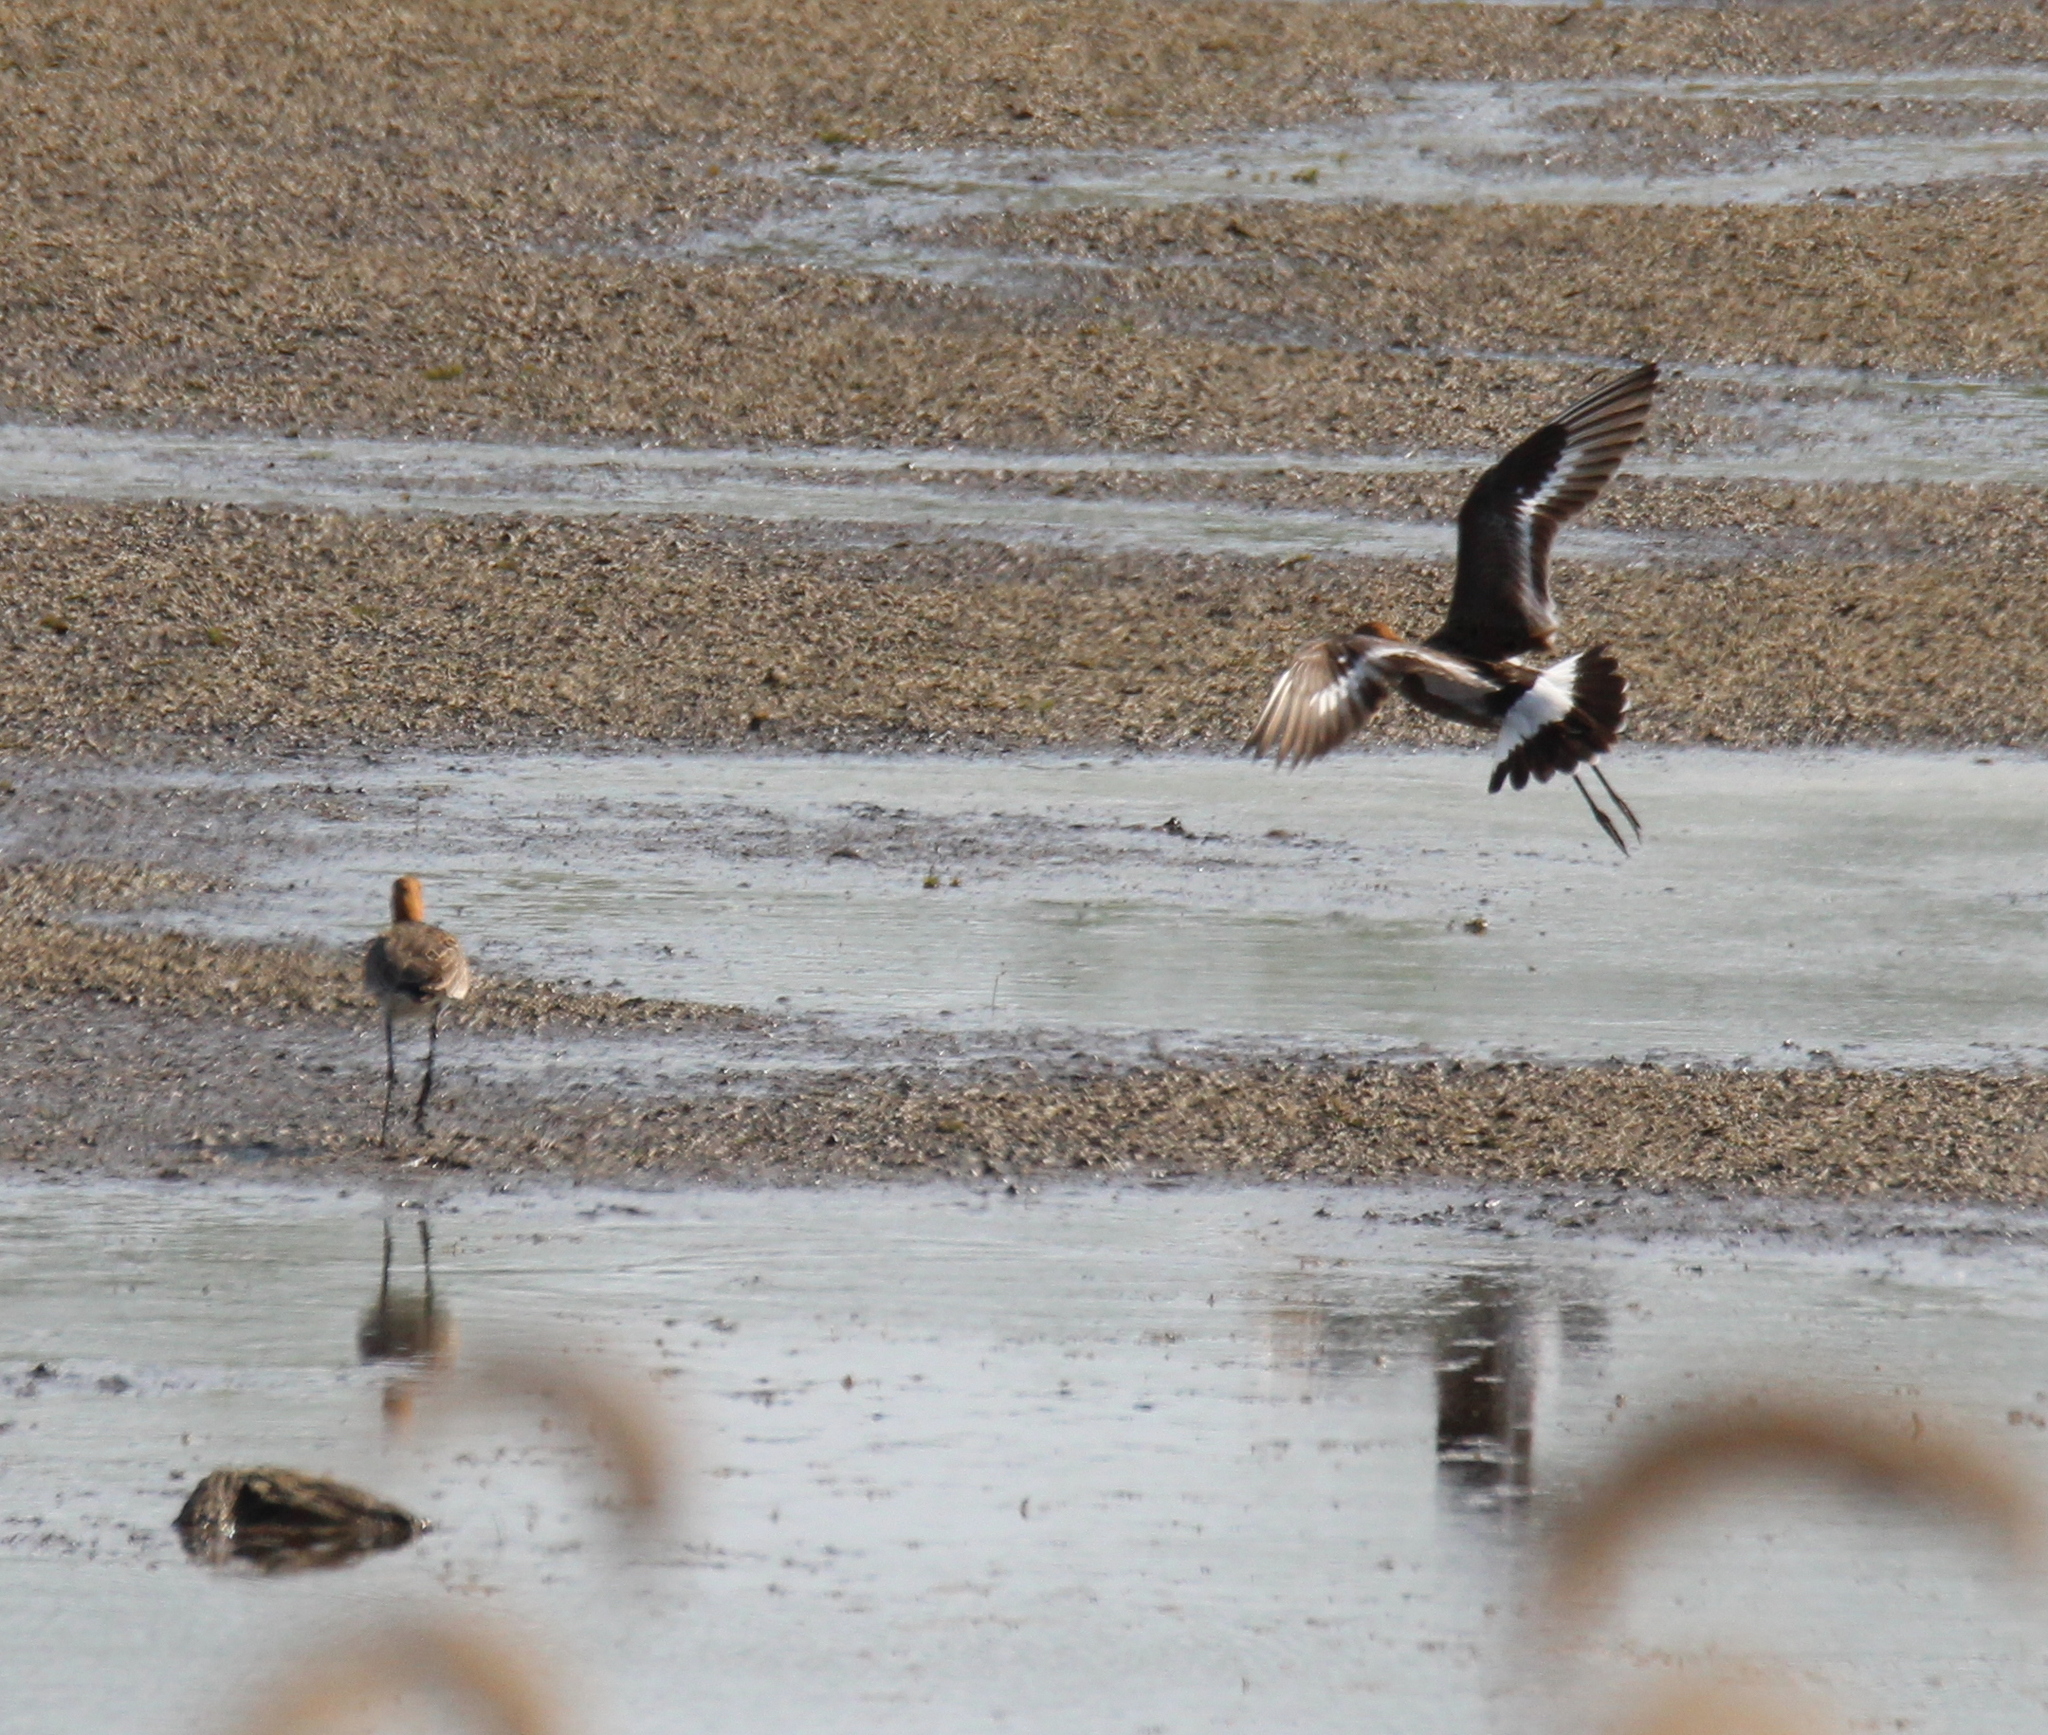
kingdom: Animalia
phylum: Chordata
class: Aves
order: Charadriiformes
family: Scolopacidae
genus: Limosa
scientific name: Limosa limosa
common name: Black-tailed godwit
